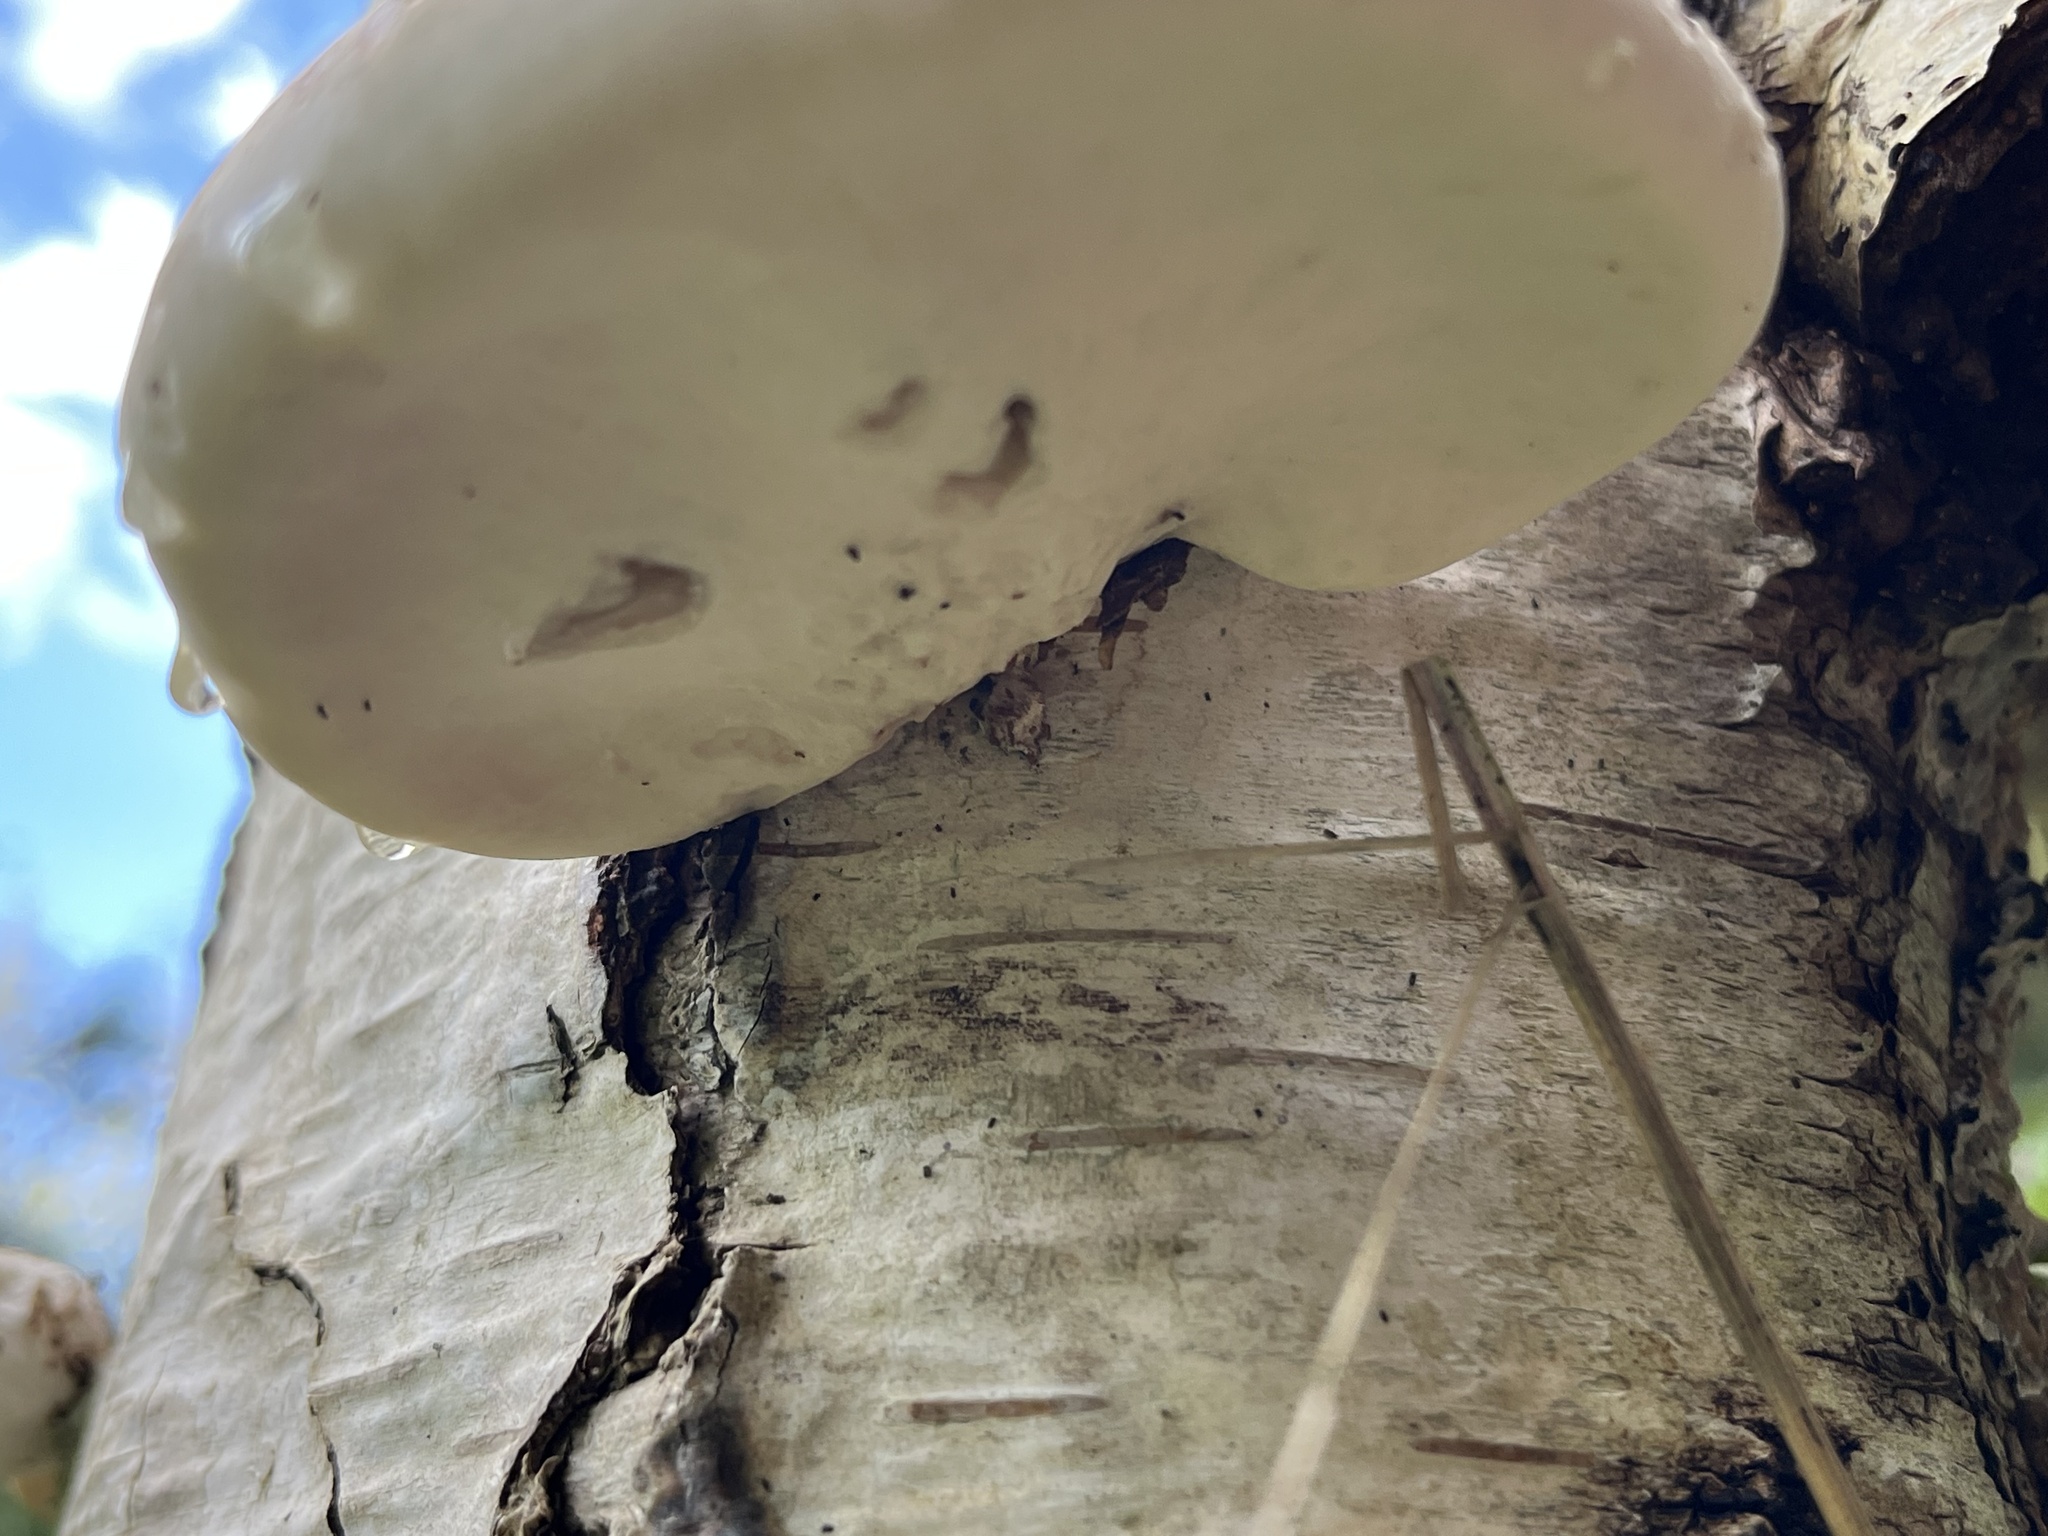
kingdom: Fungi
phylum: Basidiomycota
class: Agaricomycetes
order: Polyporales
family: Fomitopsidaceae
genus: Fomitopsis
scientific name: Fomitopsis betulina
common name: Birch polypore
